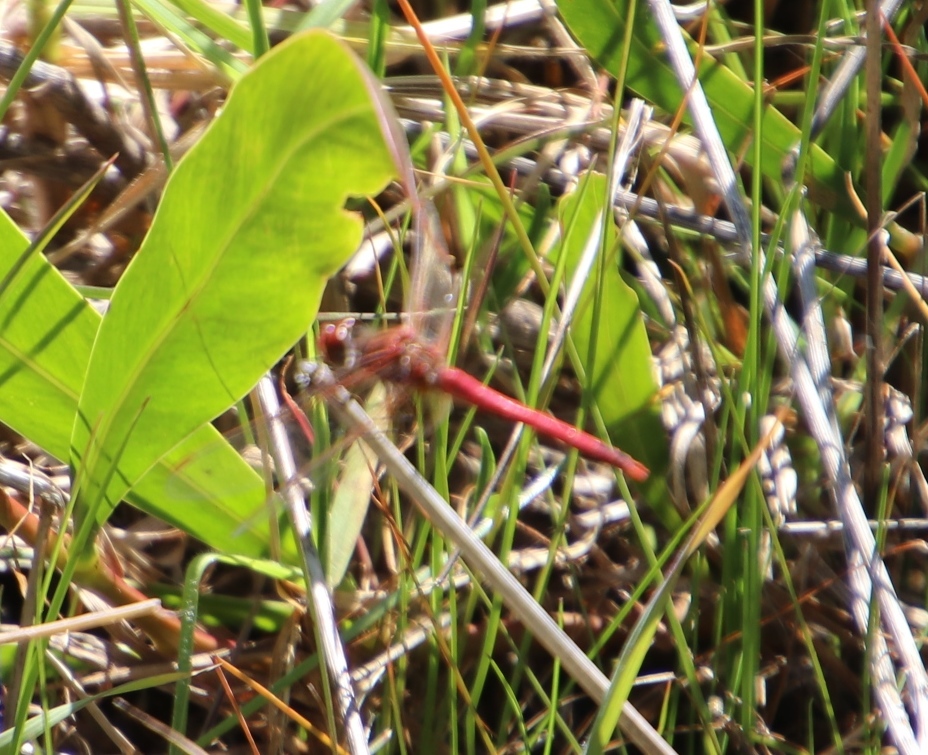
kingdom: Animalia
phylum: Arthropoda
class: Insecta
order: Odonata
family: Libellulidae
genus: Sympetrum
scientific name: Sympetrum fonscolombii
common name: Red-veined darter
